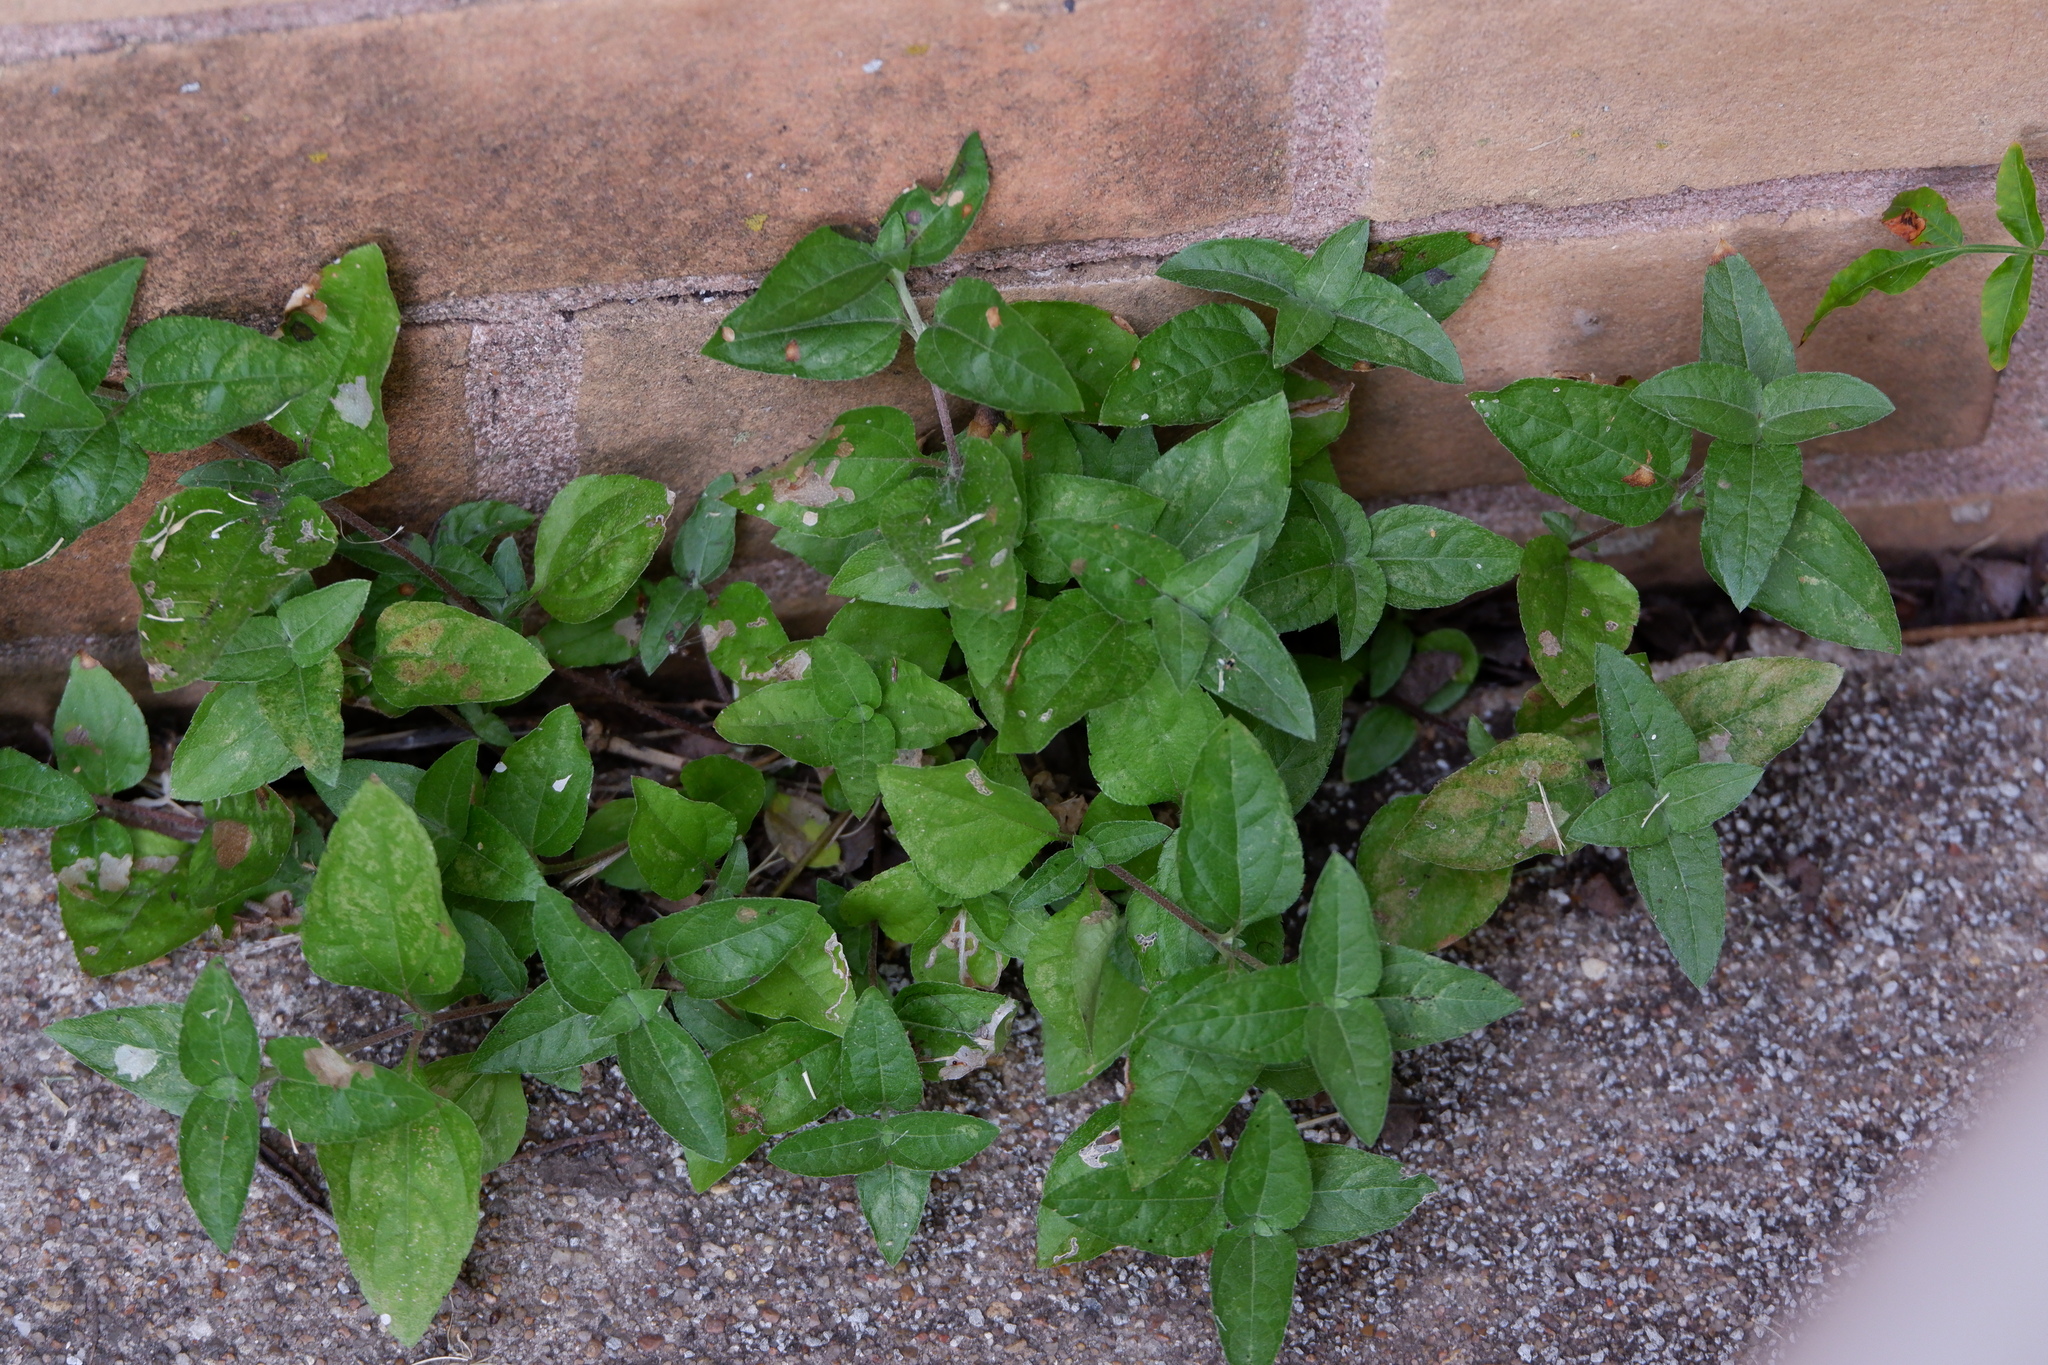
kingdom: Plantae
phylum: Tracheophyta
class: Magnoliopsida
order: Asterales
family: Asteraceae
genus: Calyptocarpus
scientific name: Calyptocarpus vialis
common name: Straggler daisy
